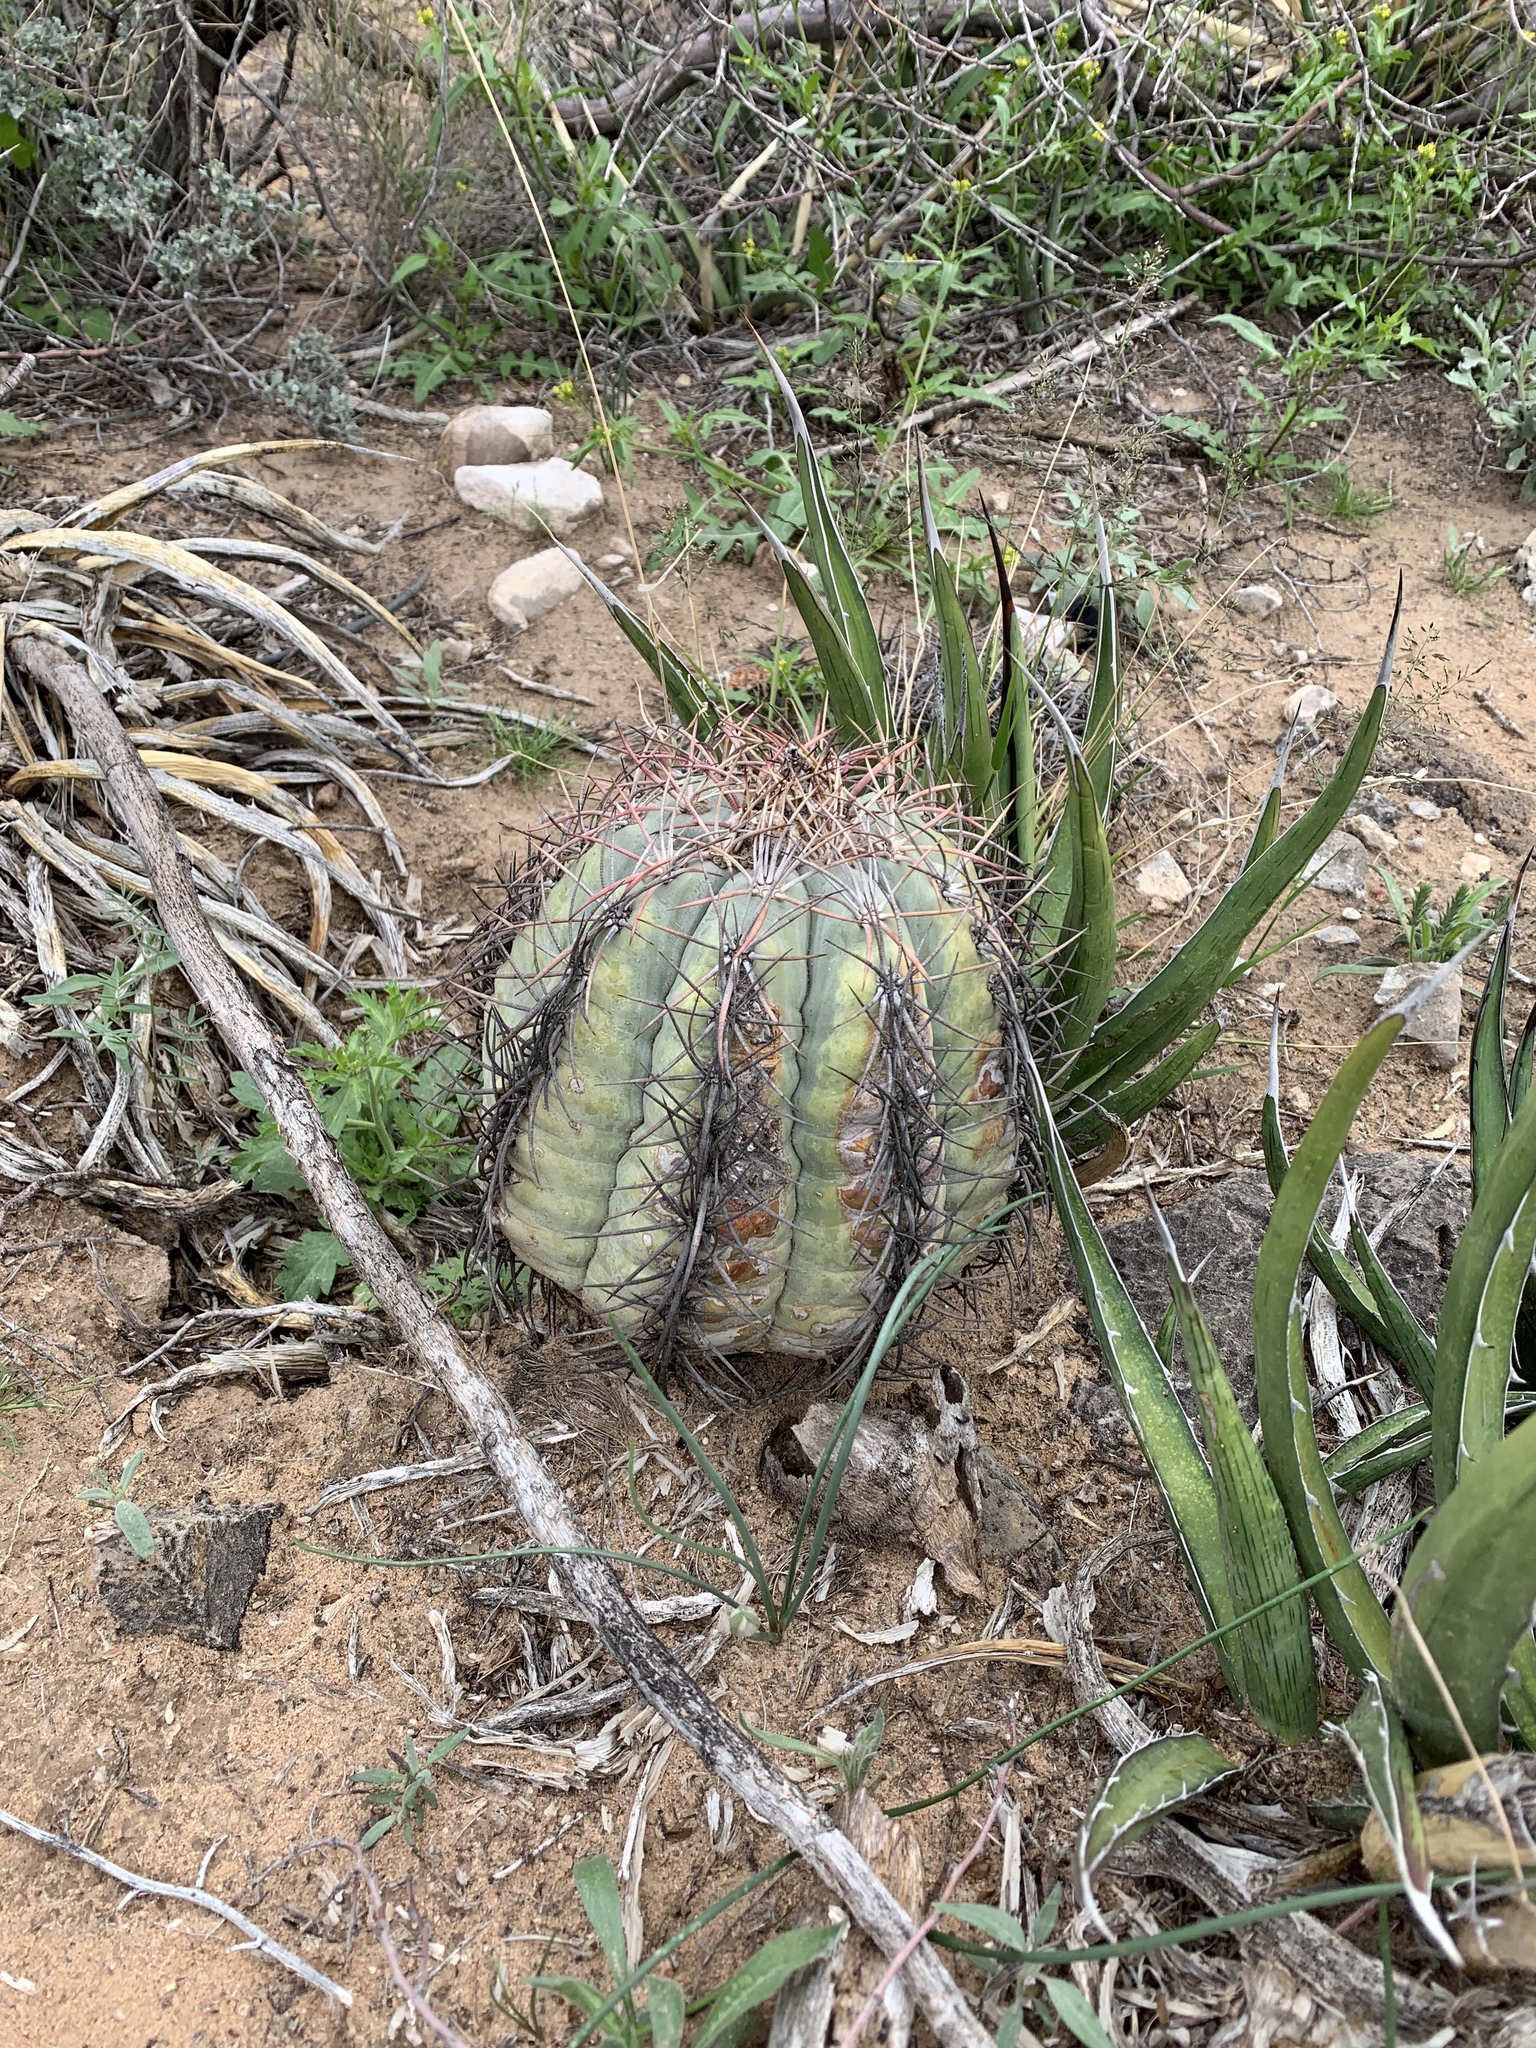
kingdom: Plantae
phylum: Tracheophyta
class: Magnoliopsida
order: Caryophyllales
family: Cactaceae
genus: Echinocactus
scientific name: Echinocactus horizonthalonius
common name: Devilshead
